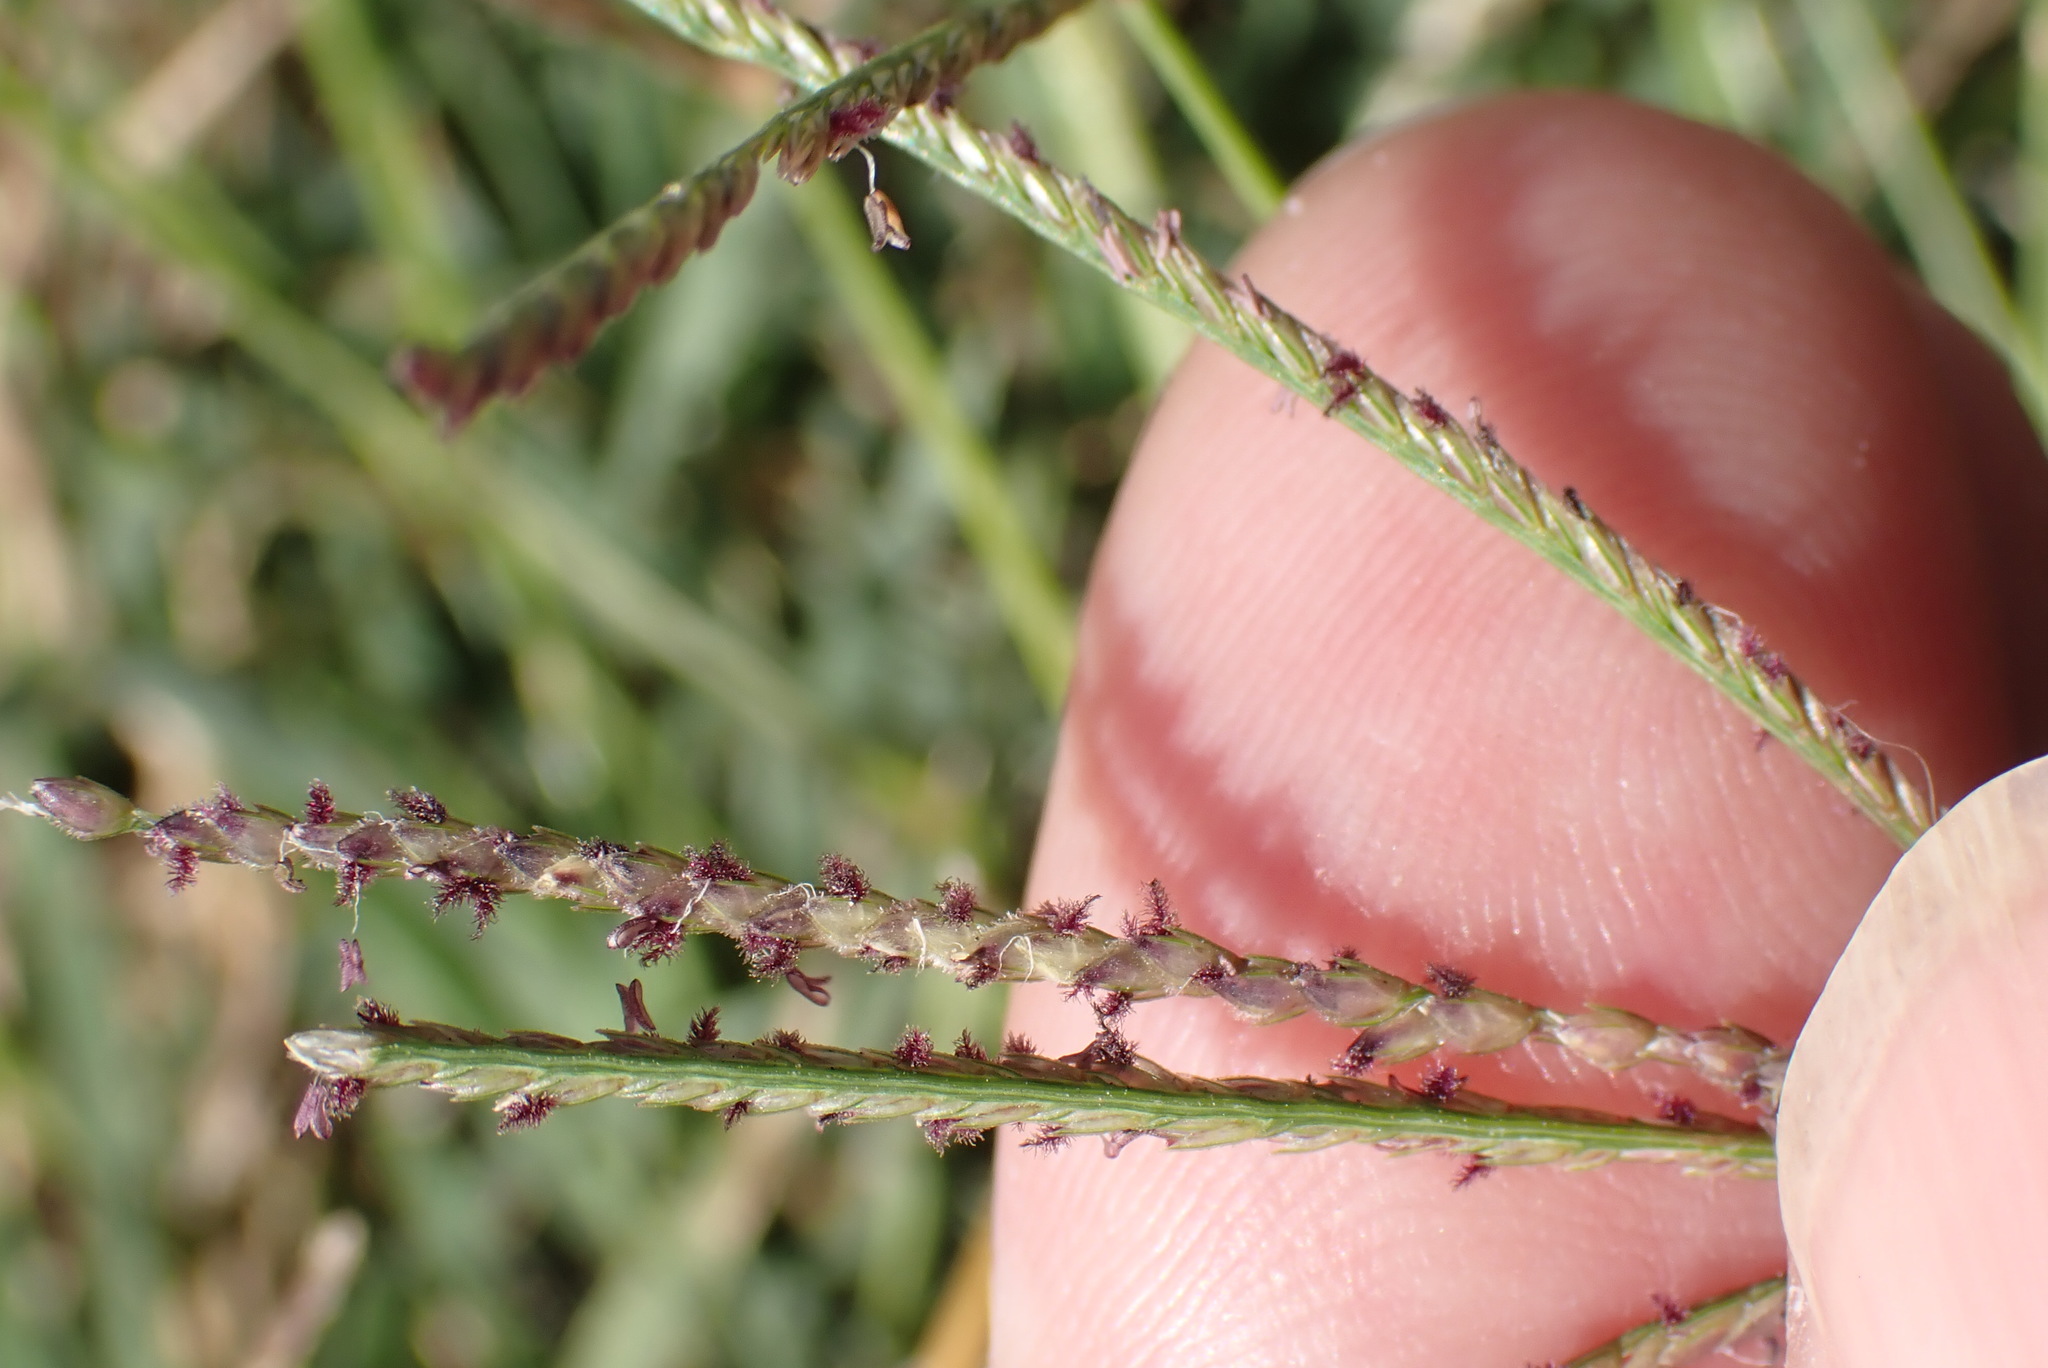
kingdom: Plantae
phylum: Tracheophyta
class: Liliopsida
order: Poales
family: Poaceae
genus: Cynodon
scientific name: Cynodon dactylon
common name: Bermuda grass
